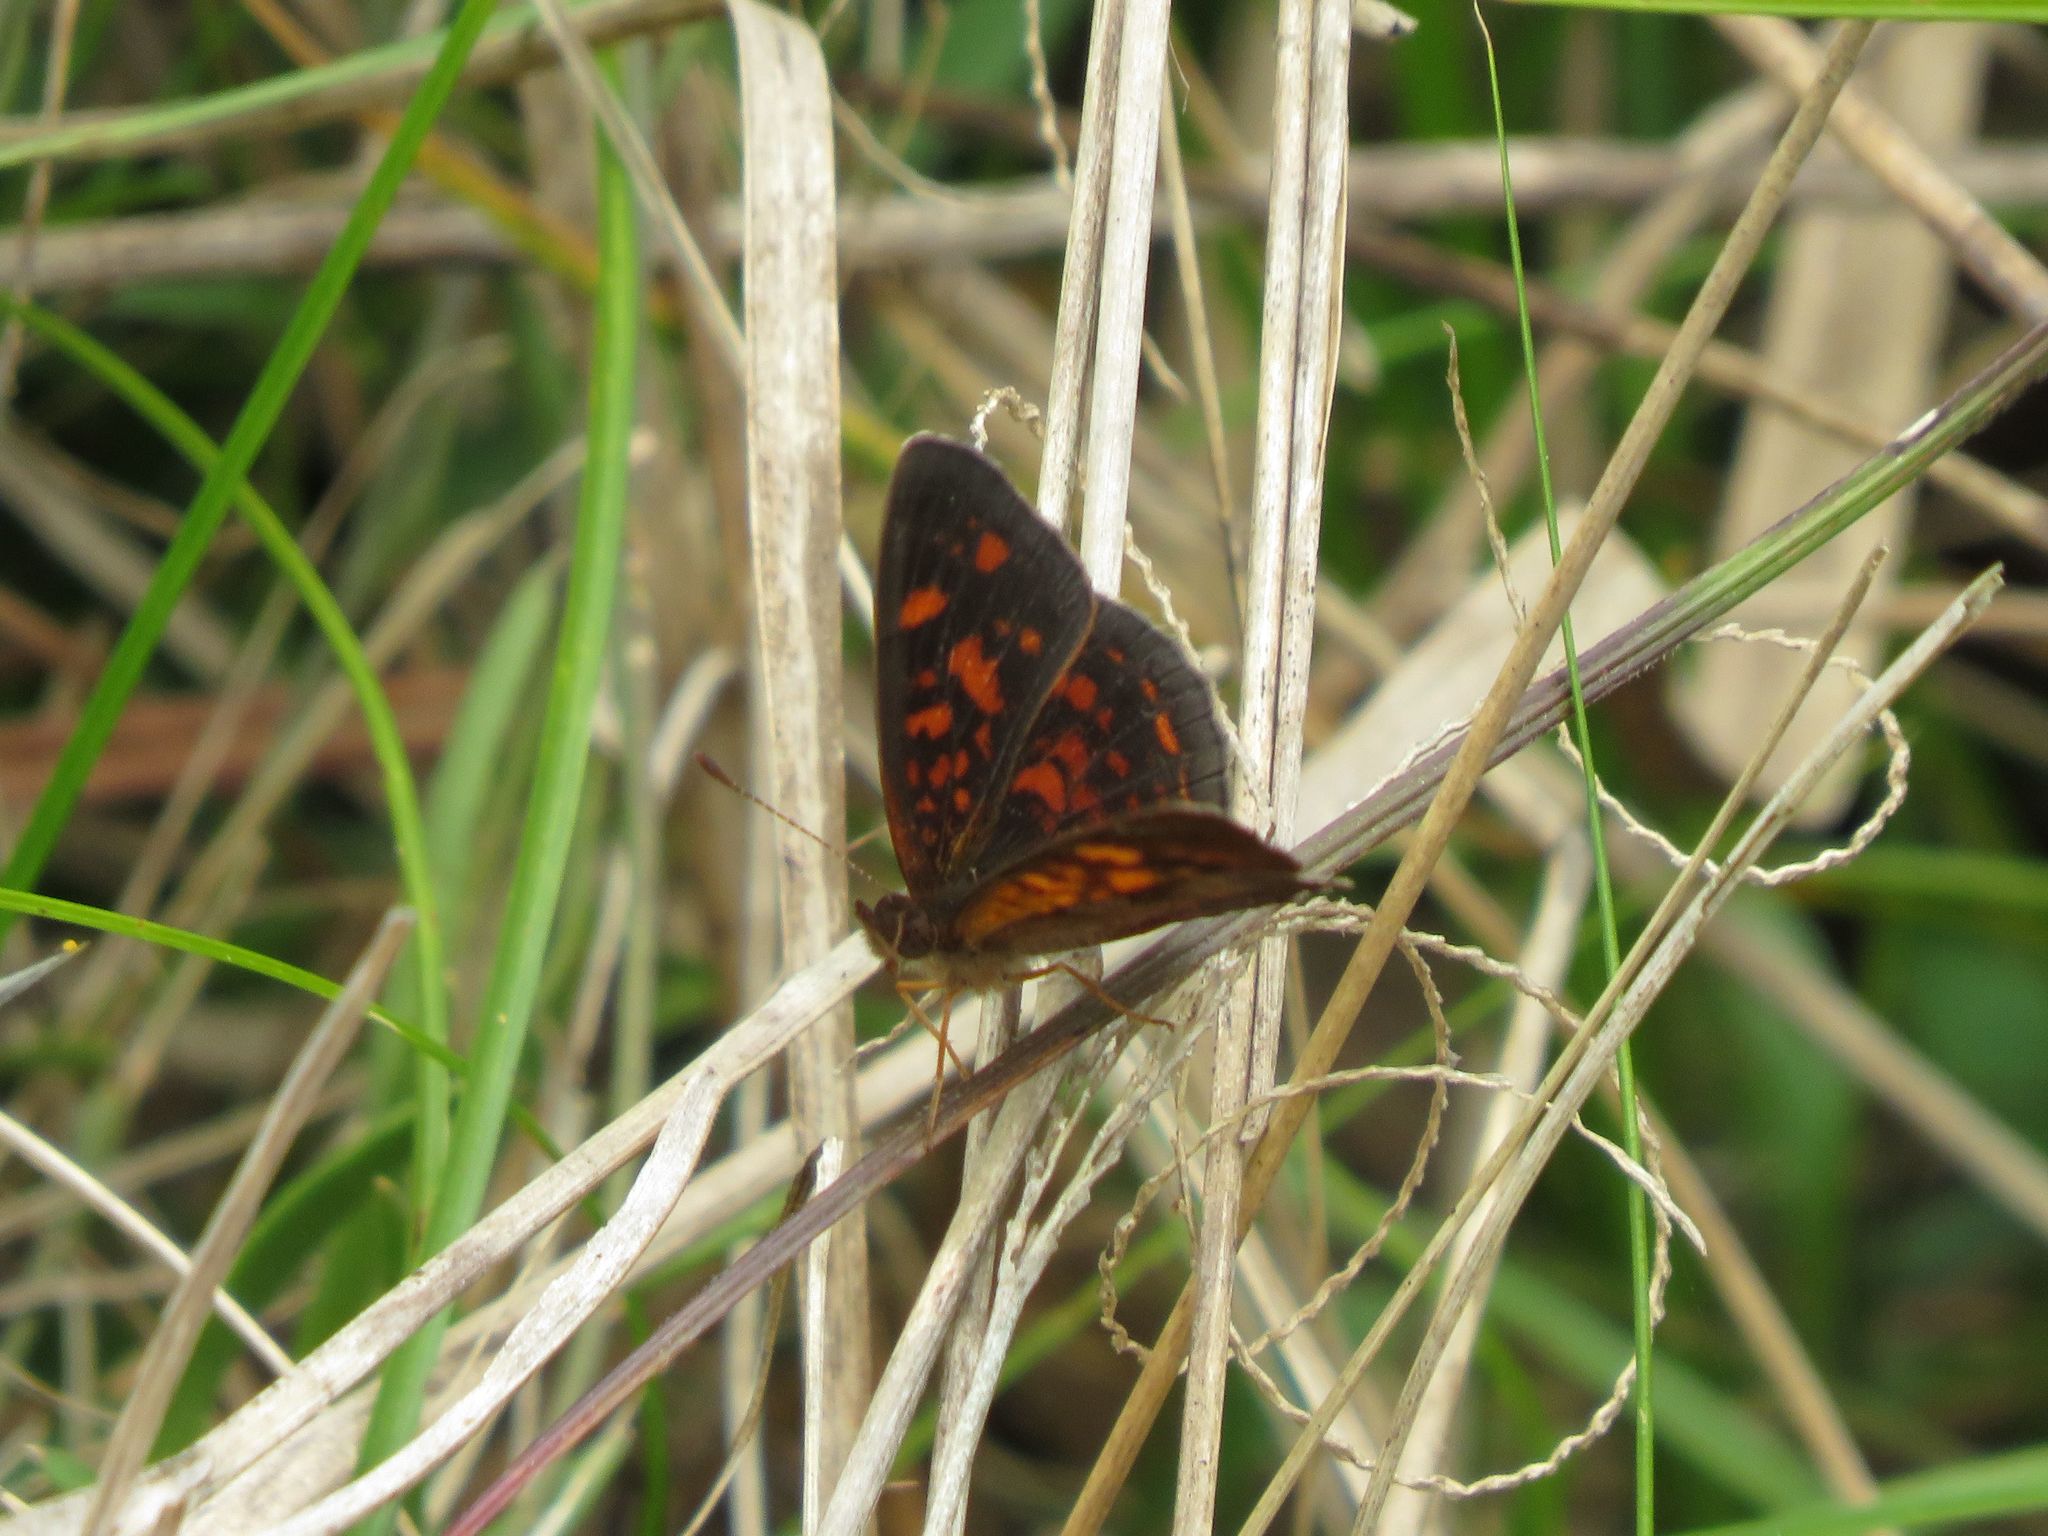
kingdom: Animalia
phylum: Arthropoda
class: Insecta
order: Lepidoptera
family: Nymphalidae
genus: Ortilia
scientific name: Ortilia velica
